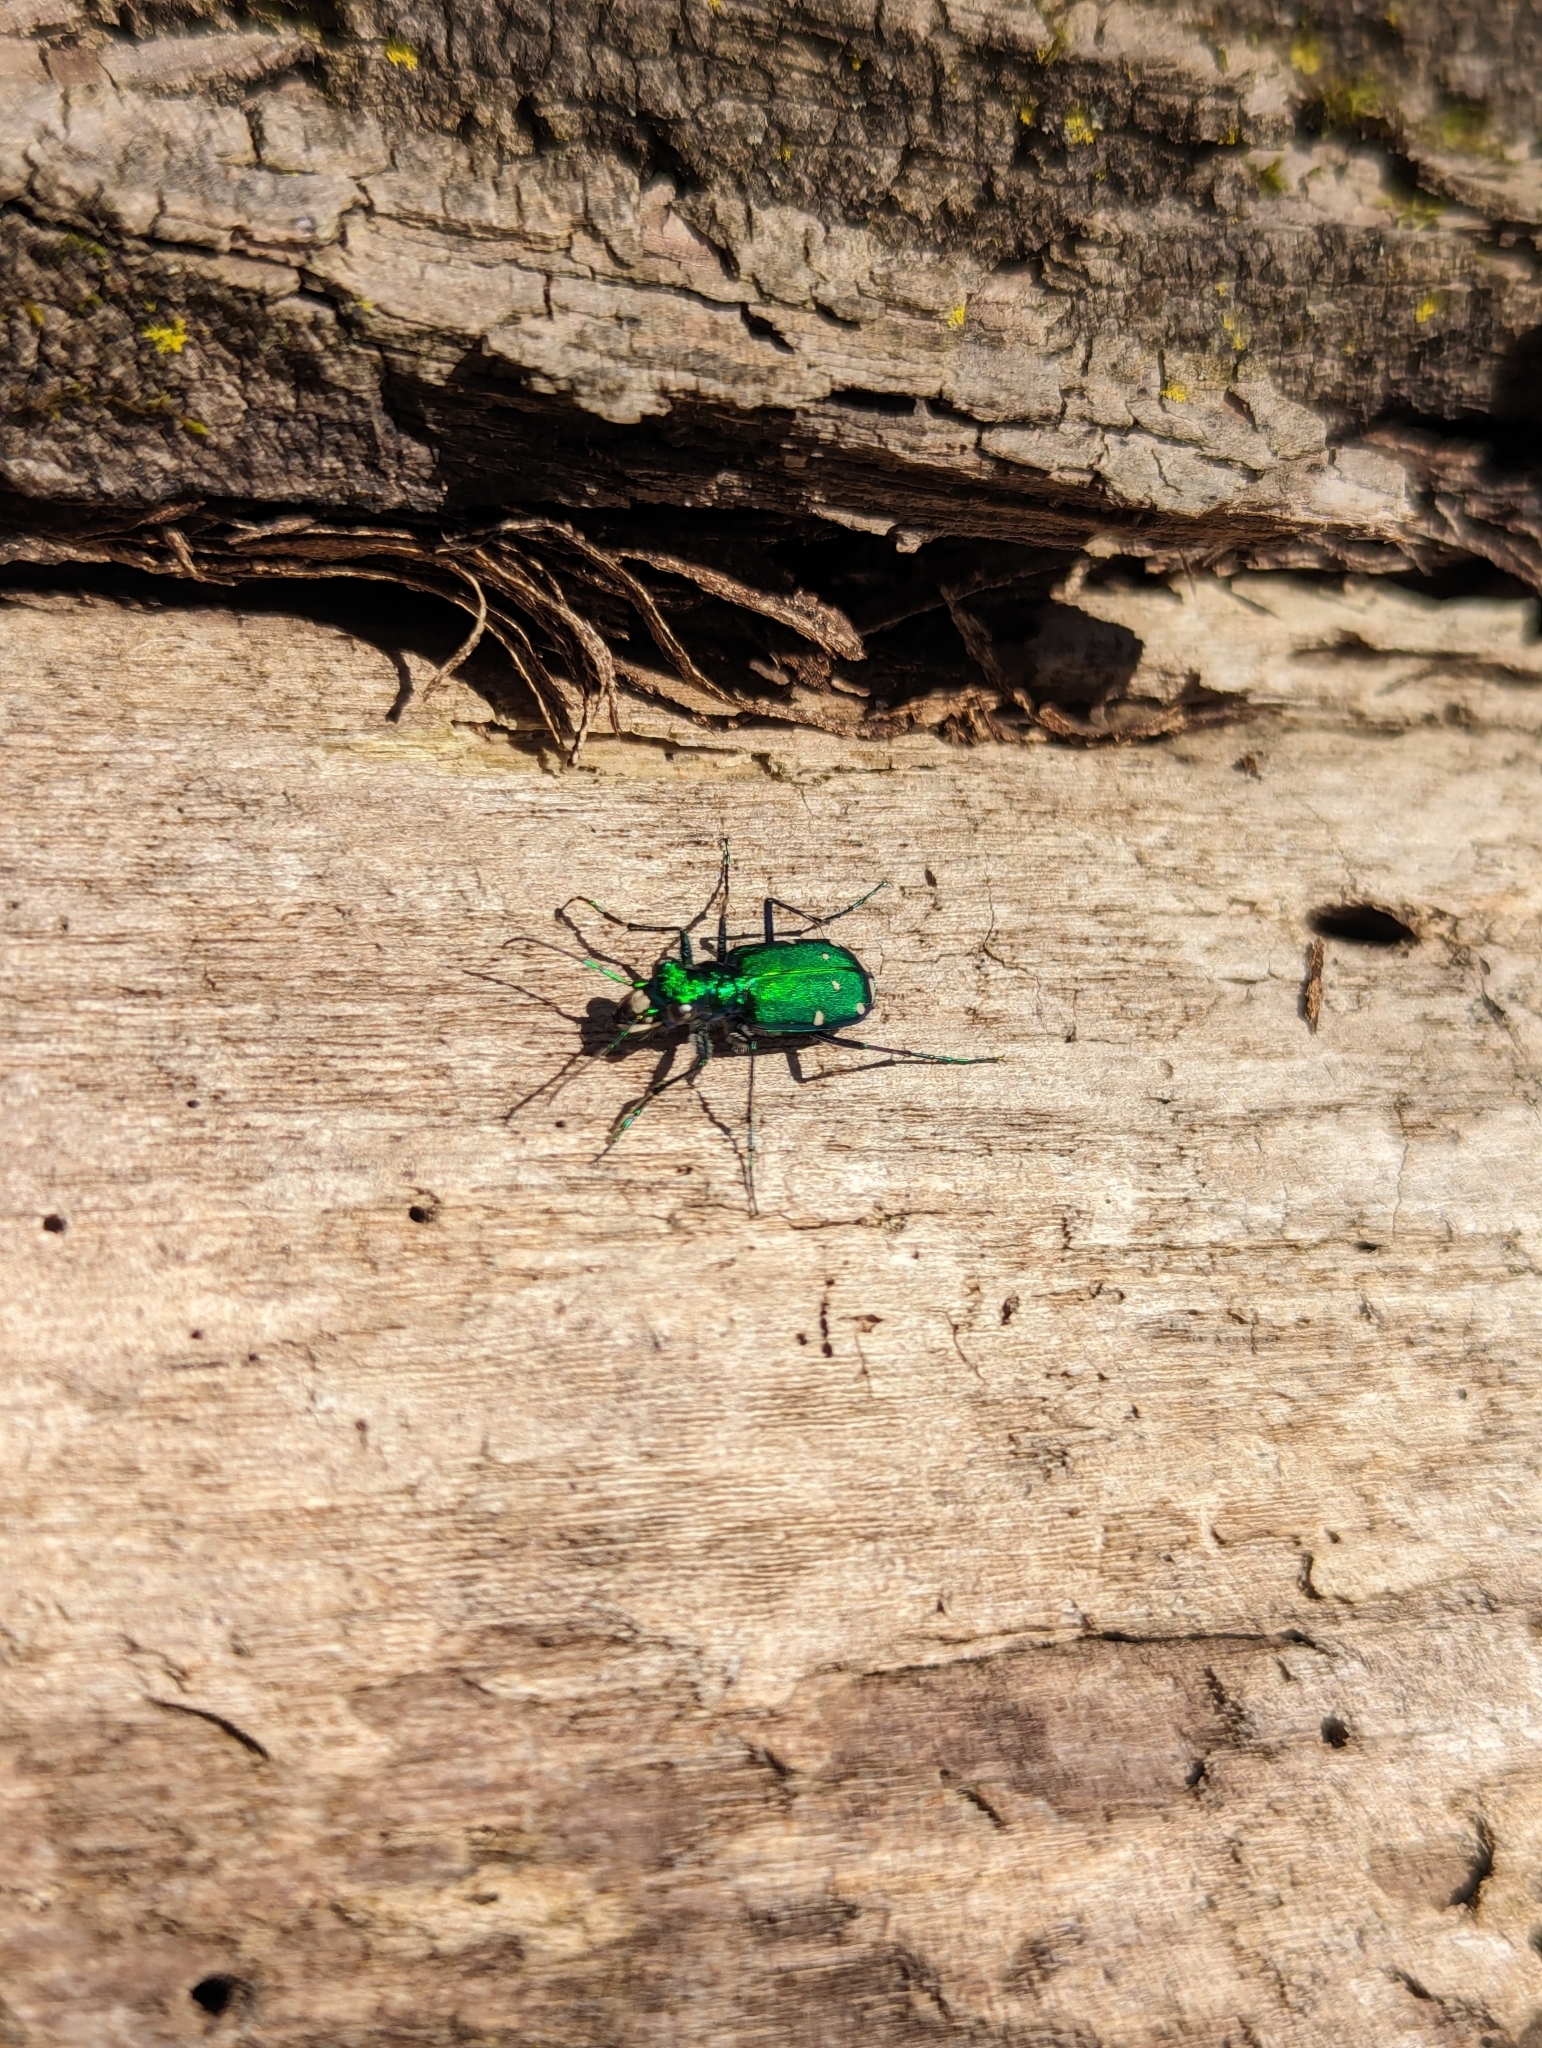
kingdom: Animalia
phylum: Arthropoda
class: Insecta
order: Coleoptera
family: Carabidae
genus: Cicindela
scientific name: Cicindela sexguttata
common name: Six-spotted tiger beetle
